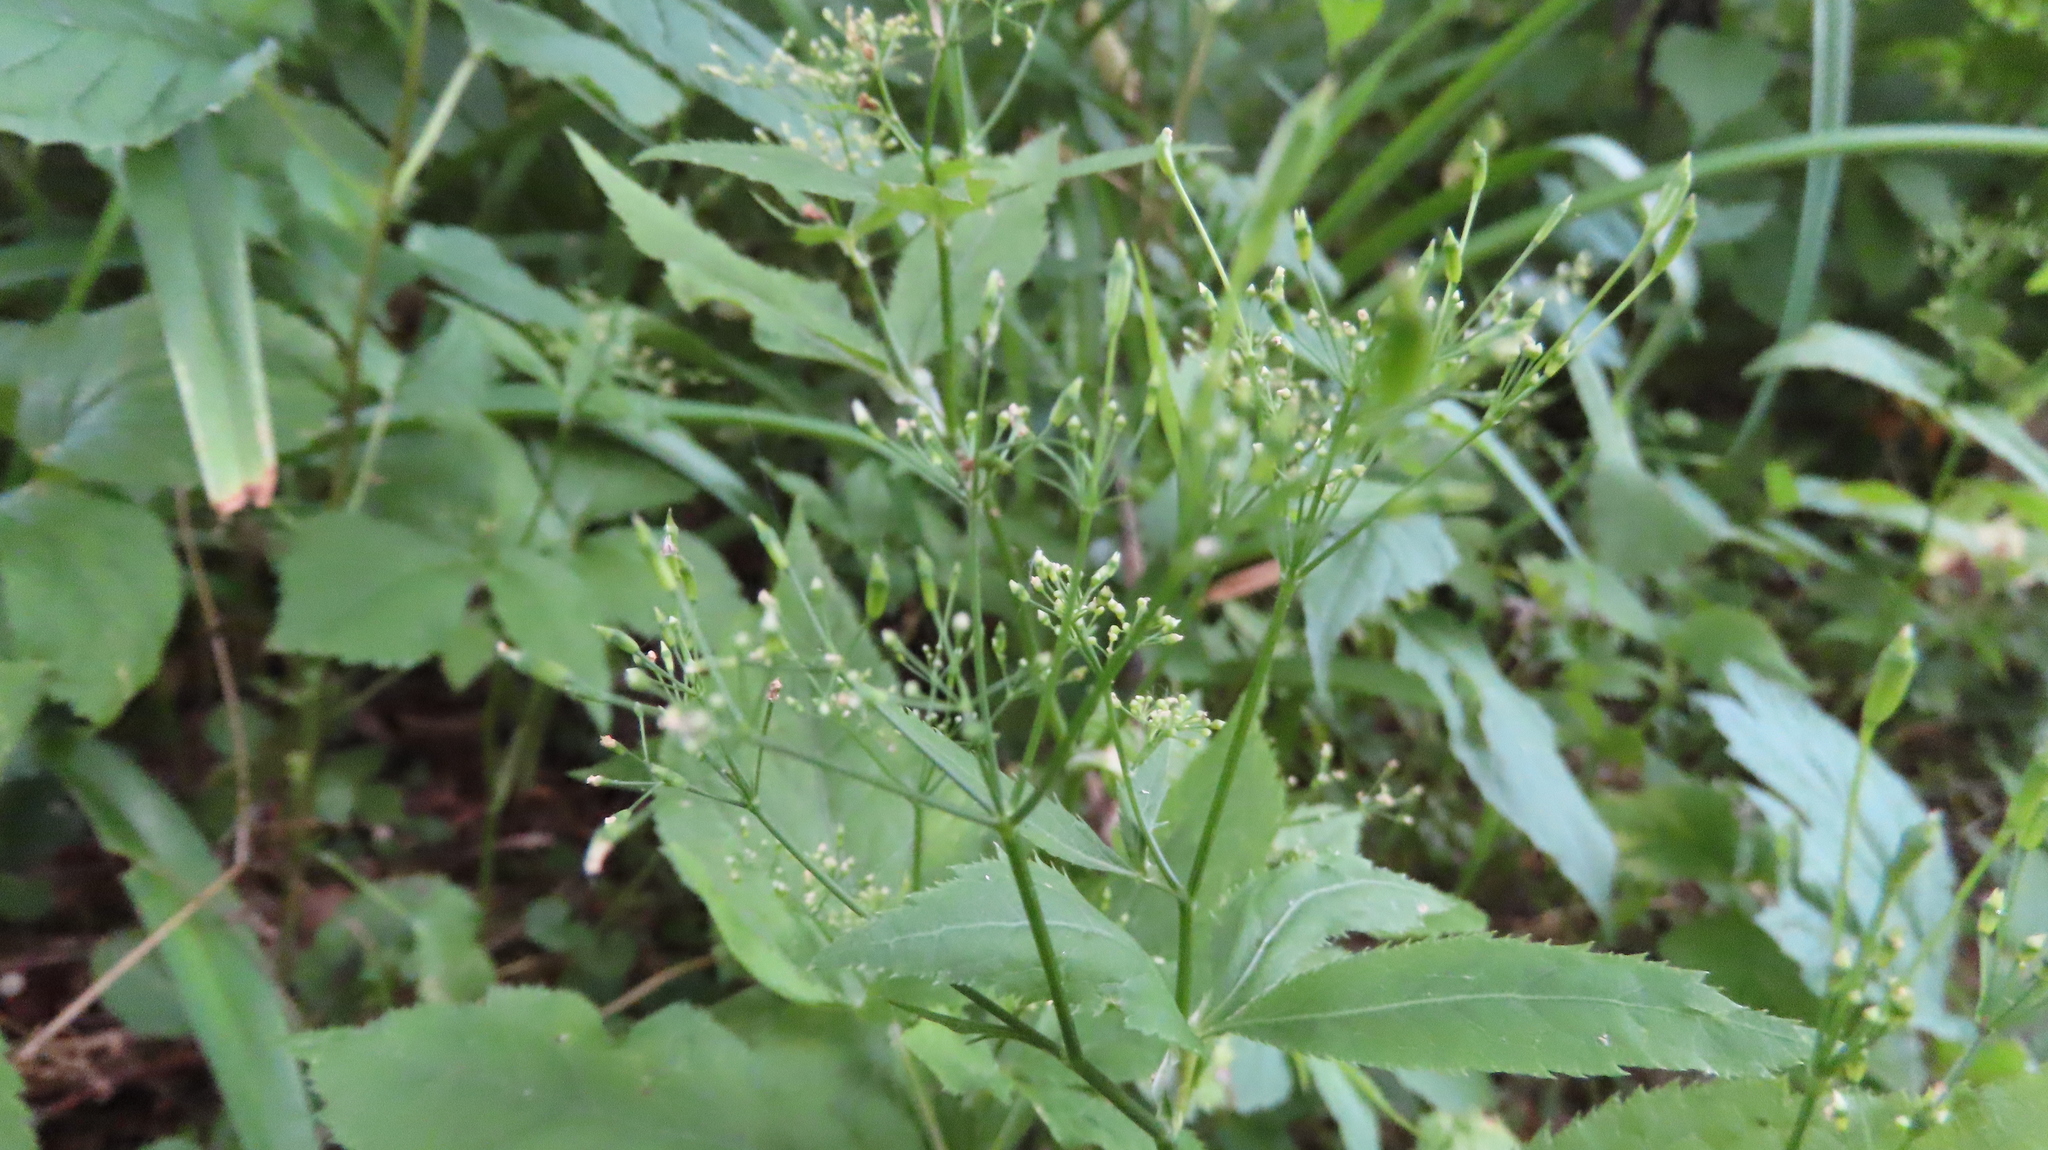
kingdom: Plantae
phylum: Tracheophyta
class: Magnoliopsida
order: Apiales
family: Apiaceae
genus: Cryptotaenia
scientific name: Cryptotaenia canadensis
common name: Honewort
